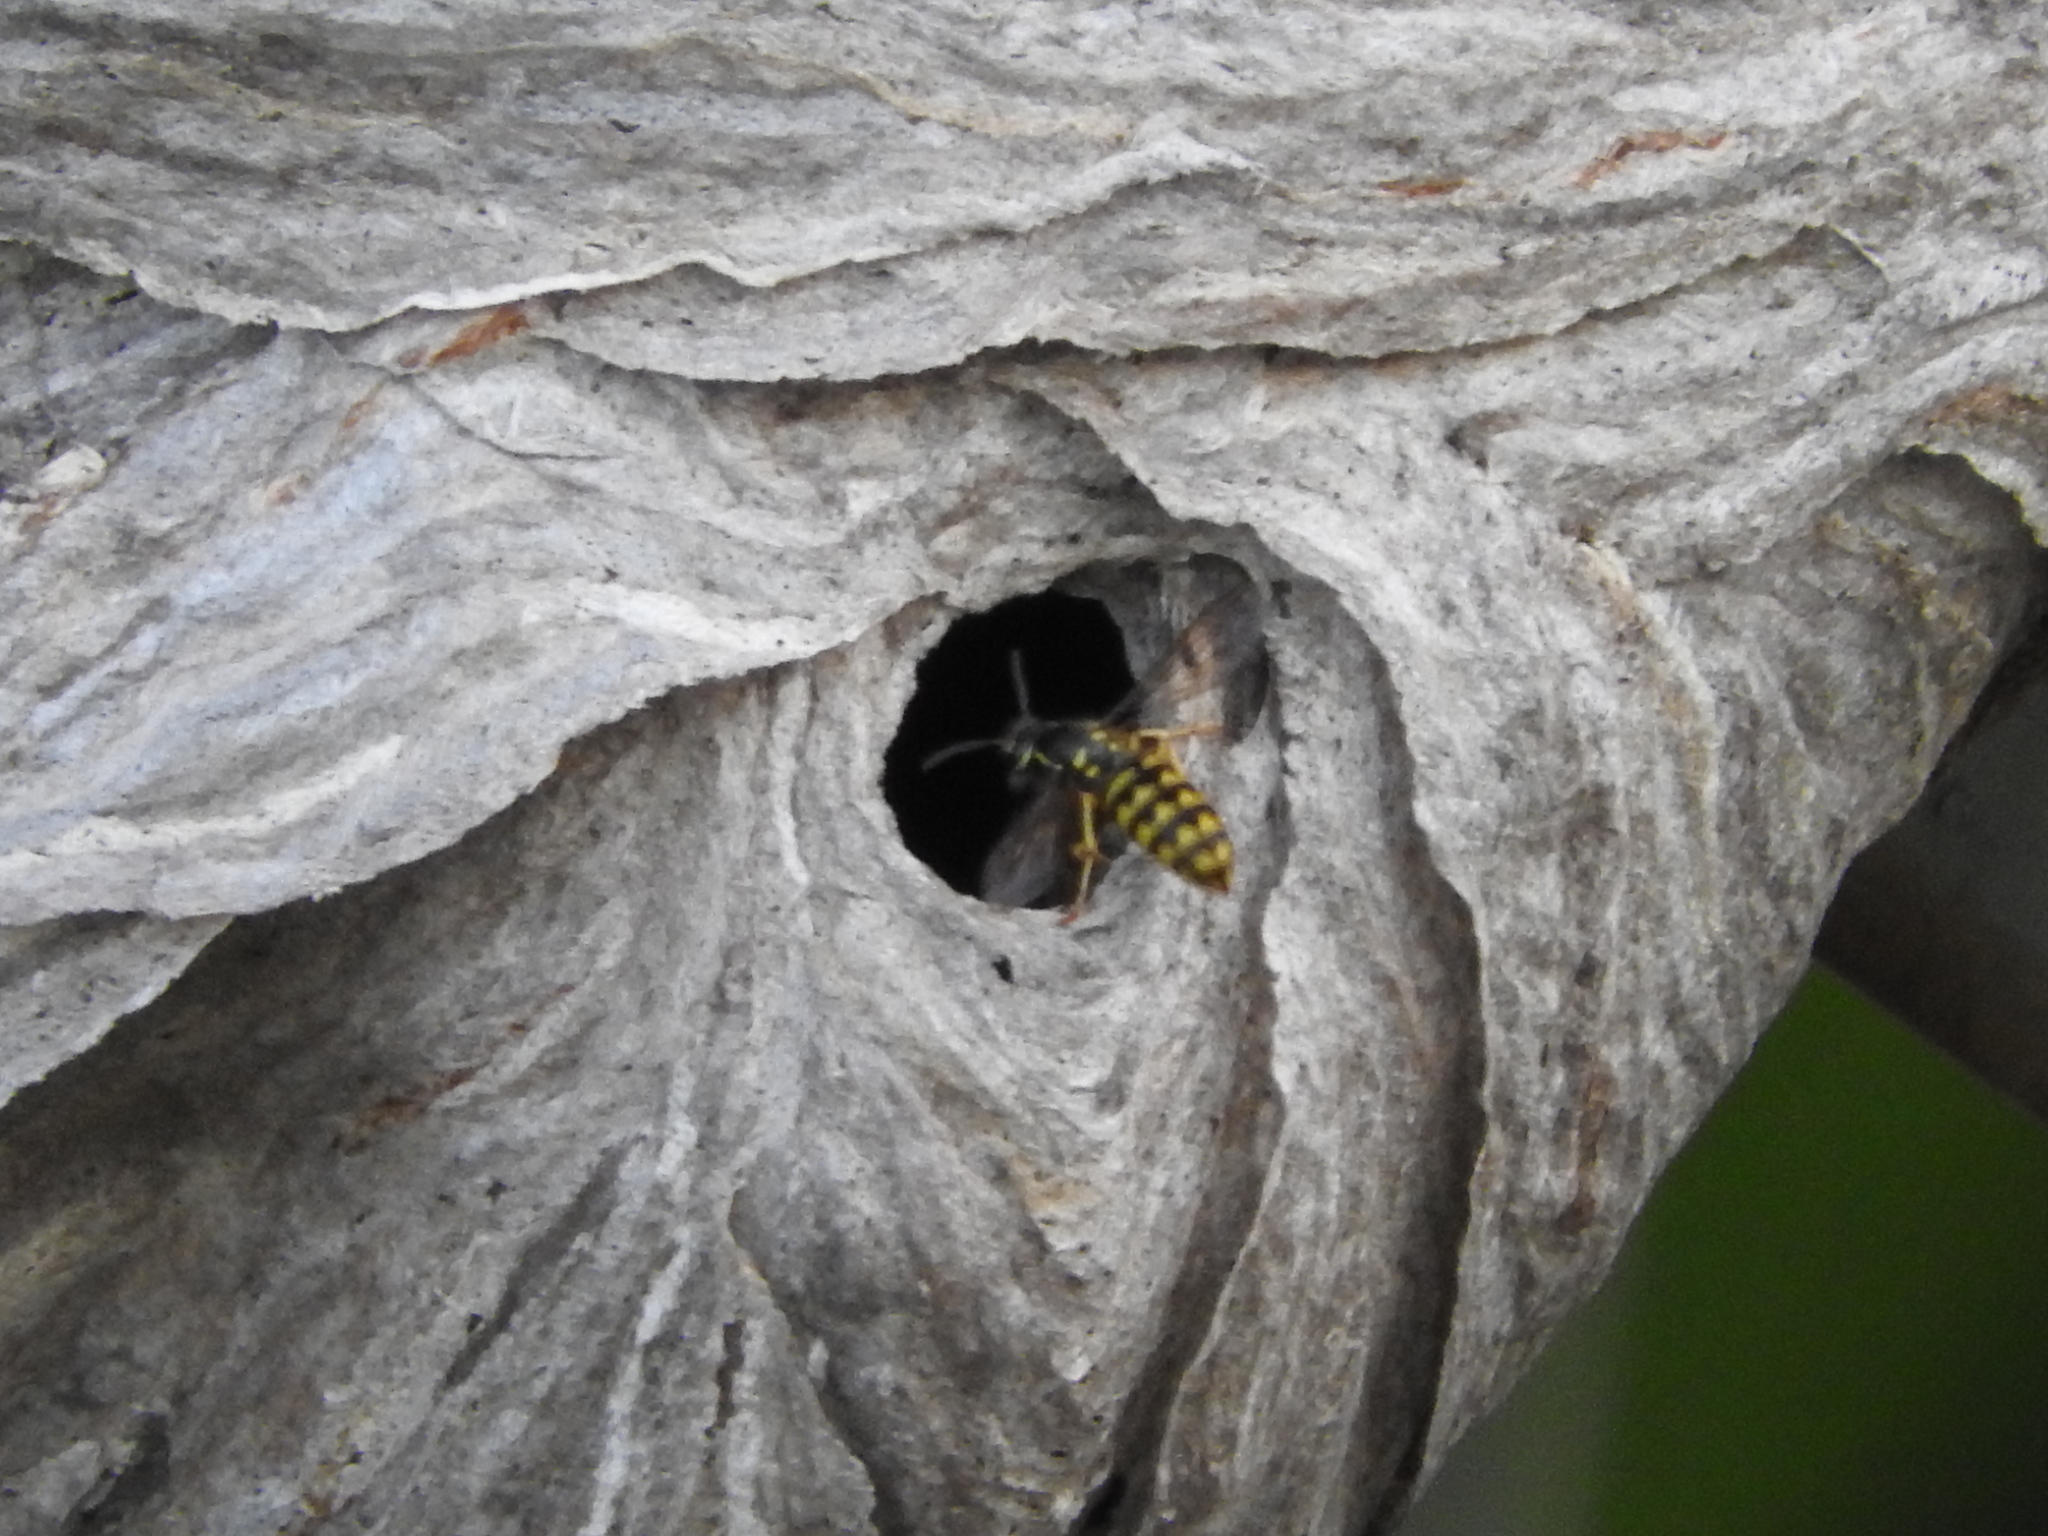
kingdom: Animalia
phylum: Arthropoda
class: Insecta
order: Hymenoptera
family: Vespidae
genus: Dolichovespula
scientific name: Dolichovespula arenaria
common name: Aerial yellowjacket
